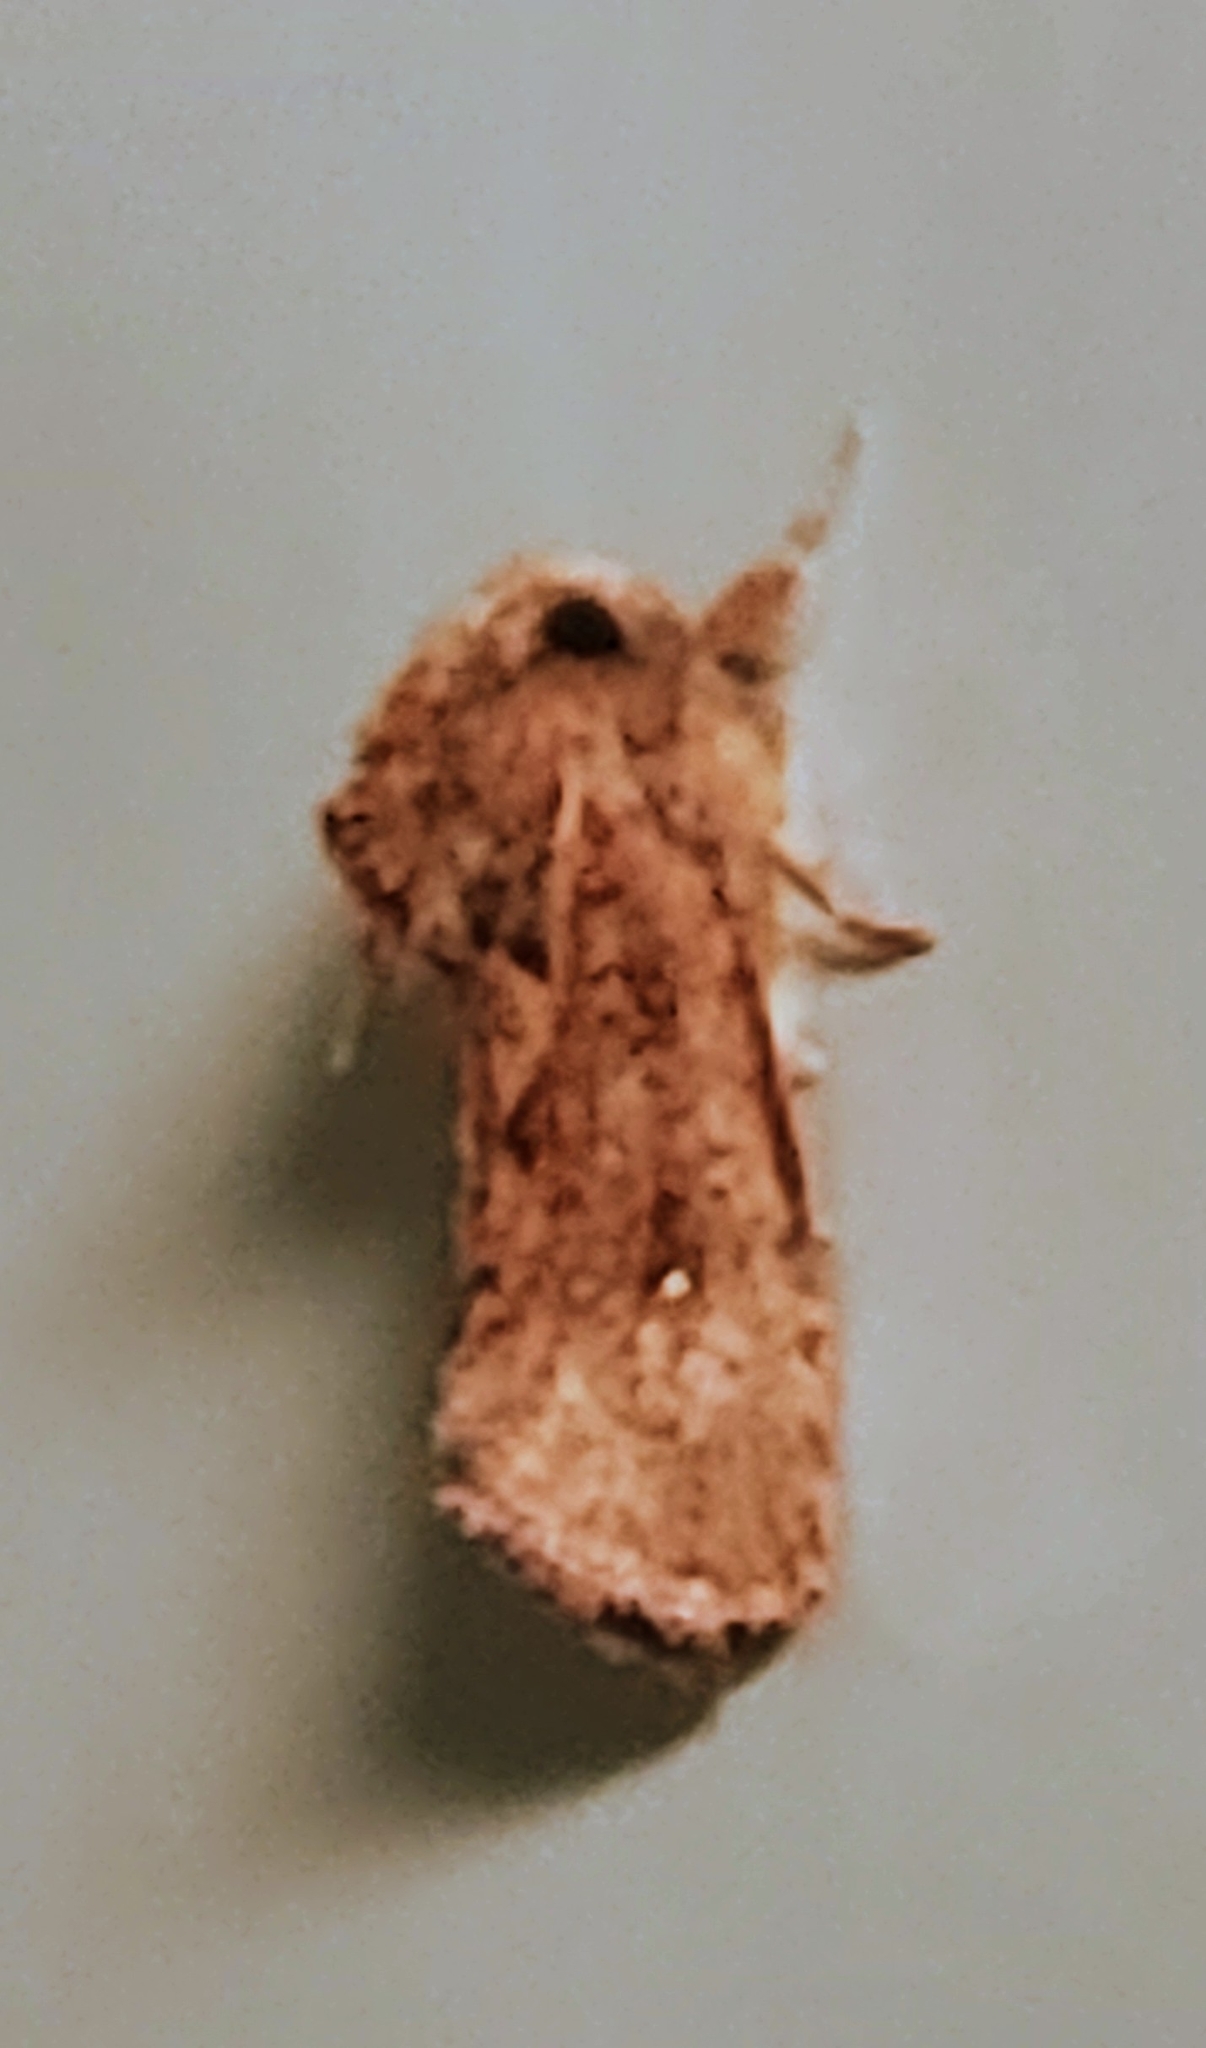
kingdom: Animalia
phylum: Arthropoda
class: Insecta
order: Lepidoptera
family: Tineidae
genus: Acrolophus
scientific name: Acrolophus walsinghami
